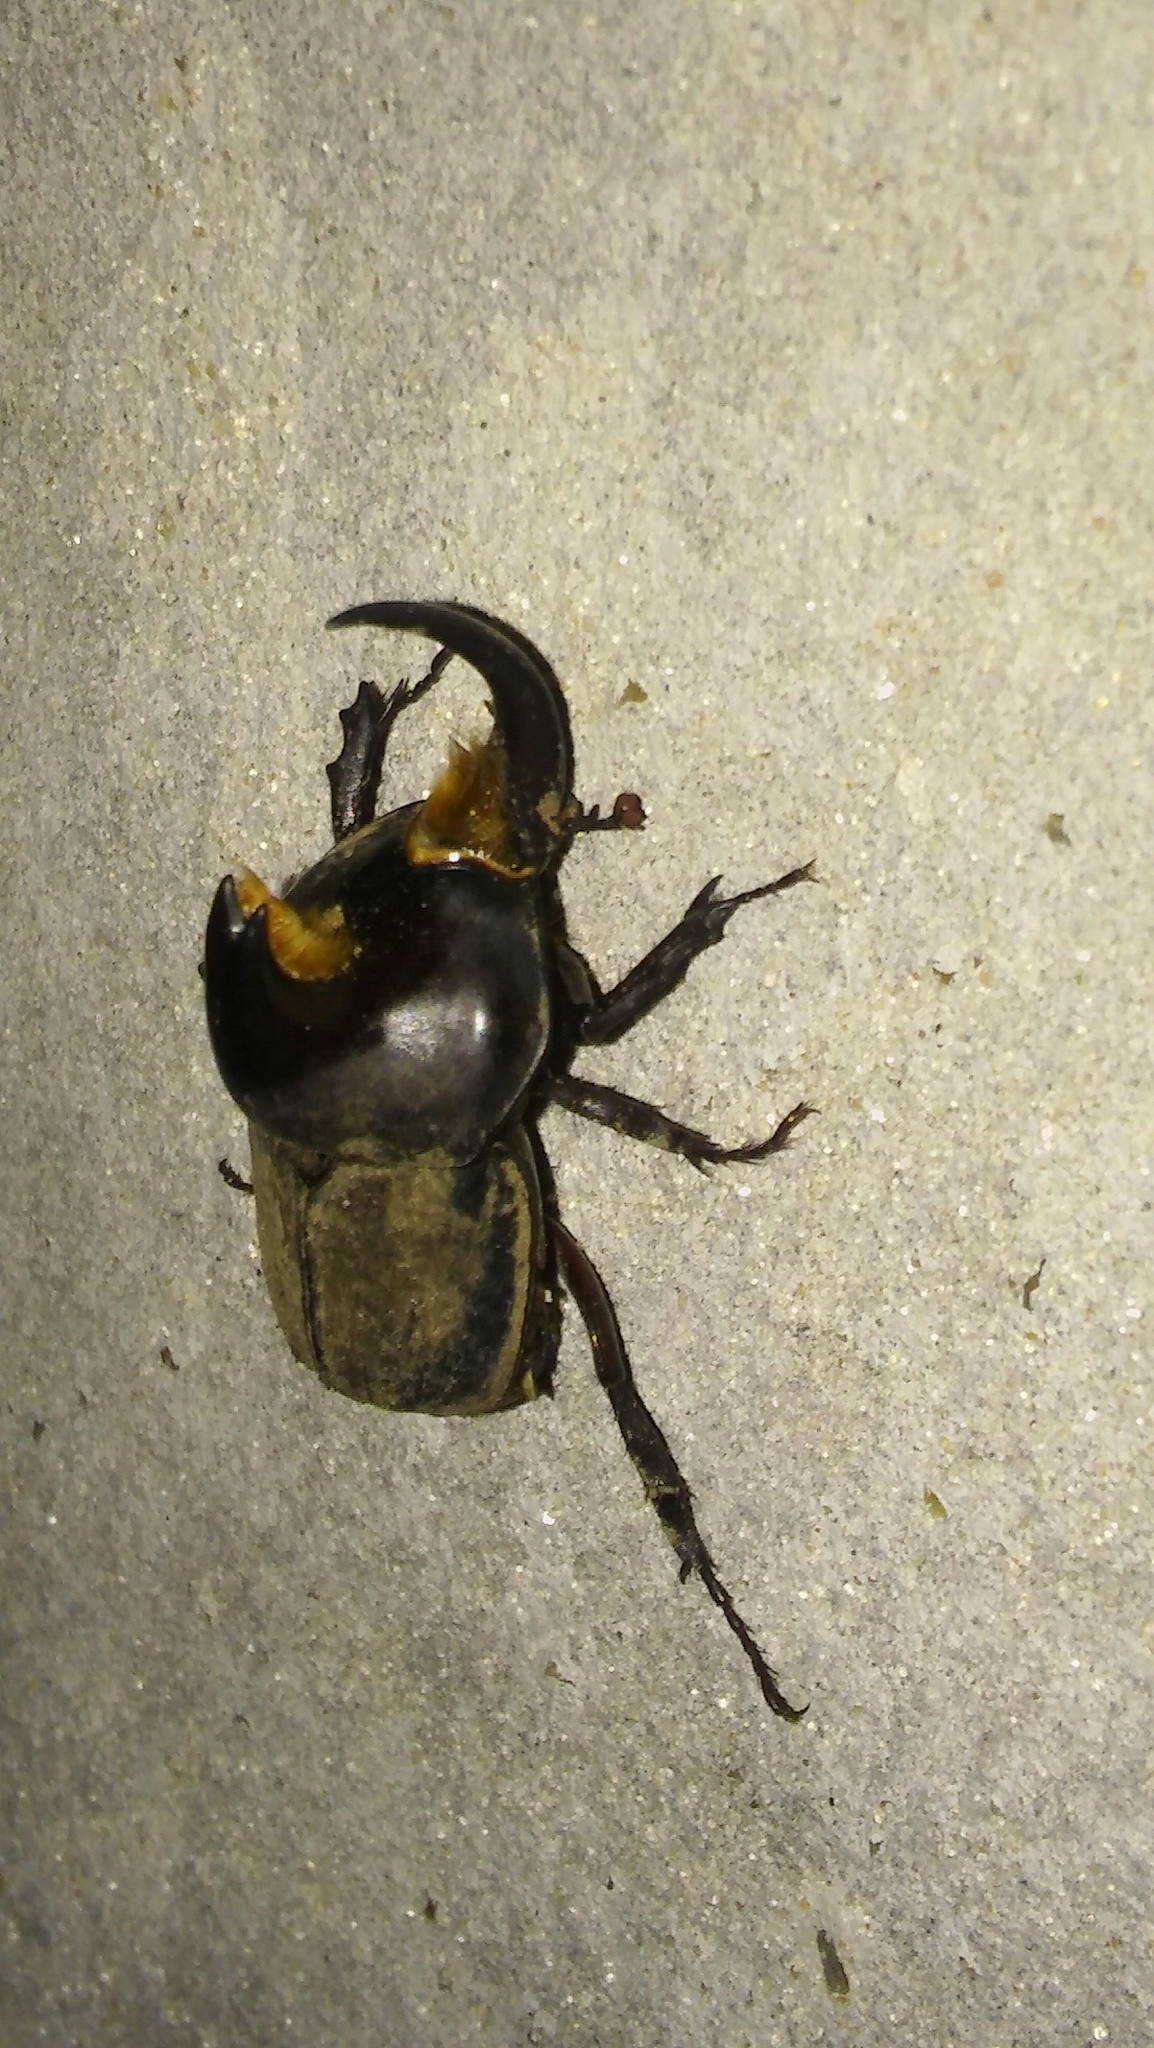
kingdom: Animalia
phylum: Arthropoda
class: Insecta
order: Coleoptera
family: Scarabaeidae
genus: Diloboderus
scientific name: Diloboderus abderus
